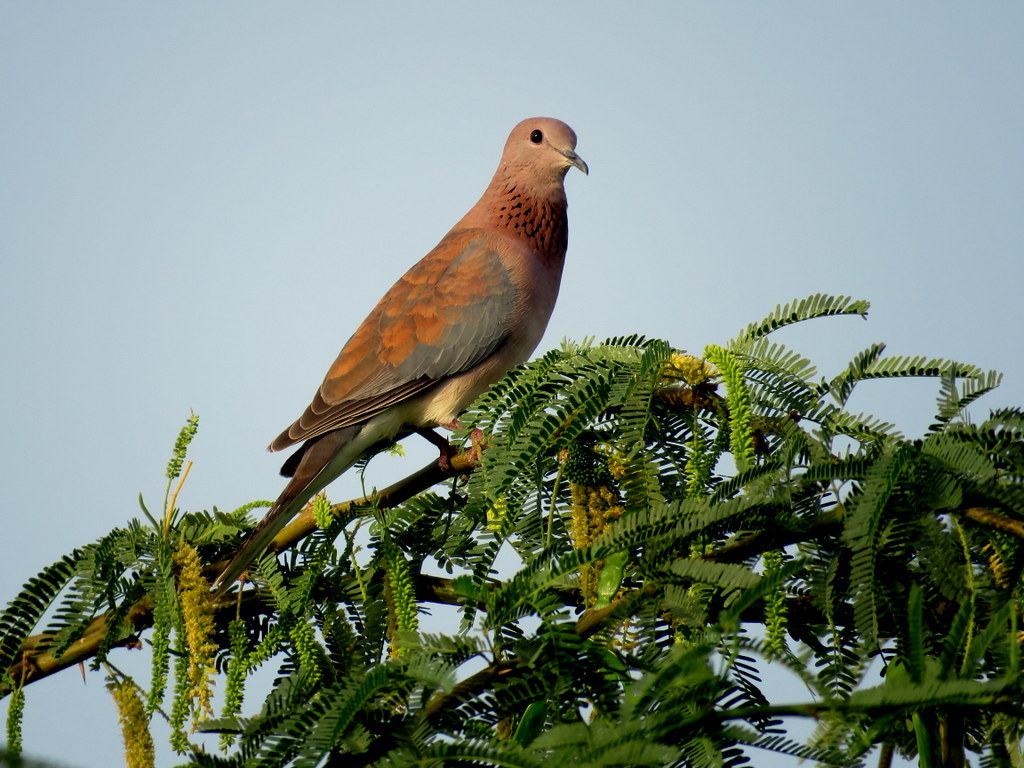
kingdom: Animalia
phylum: Chordata
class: Aves
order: Columbiformes
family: Columbidae
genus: Spilopelia
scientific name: Spilopelia senegalensis
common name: Laughing dove
